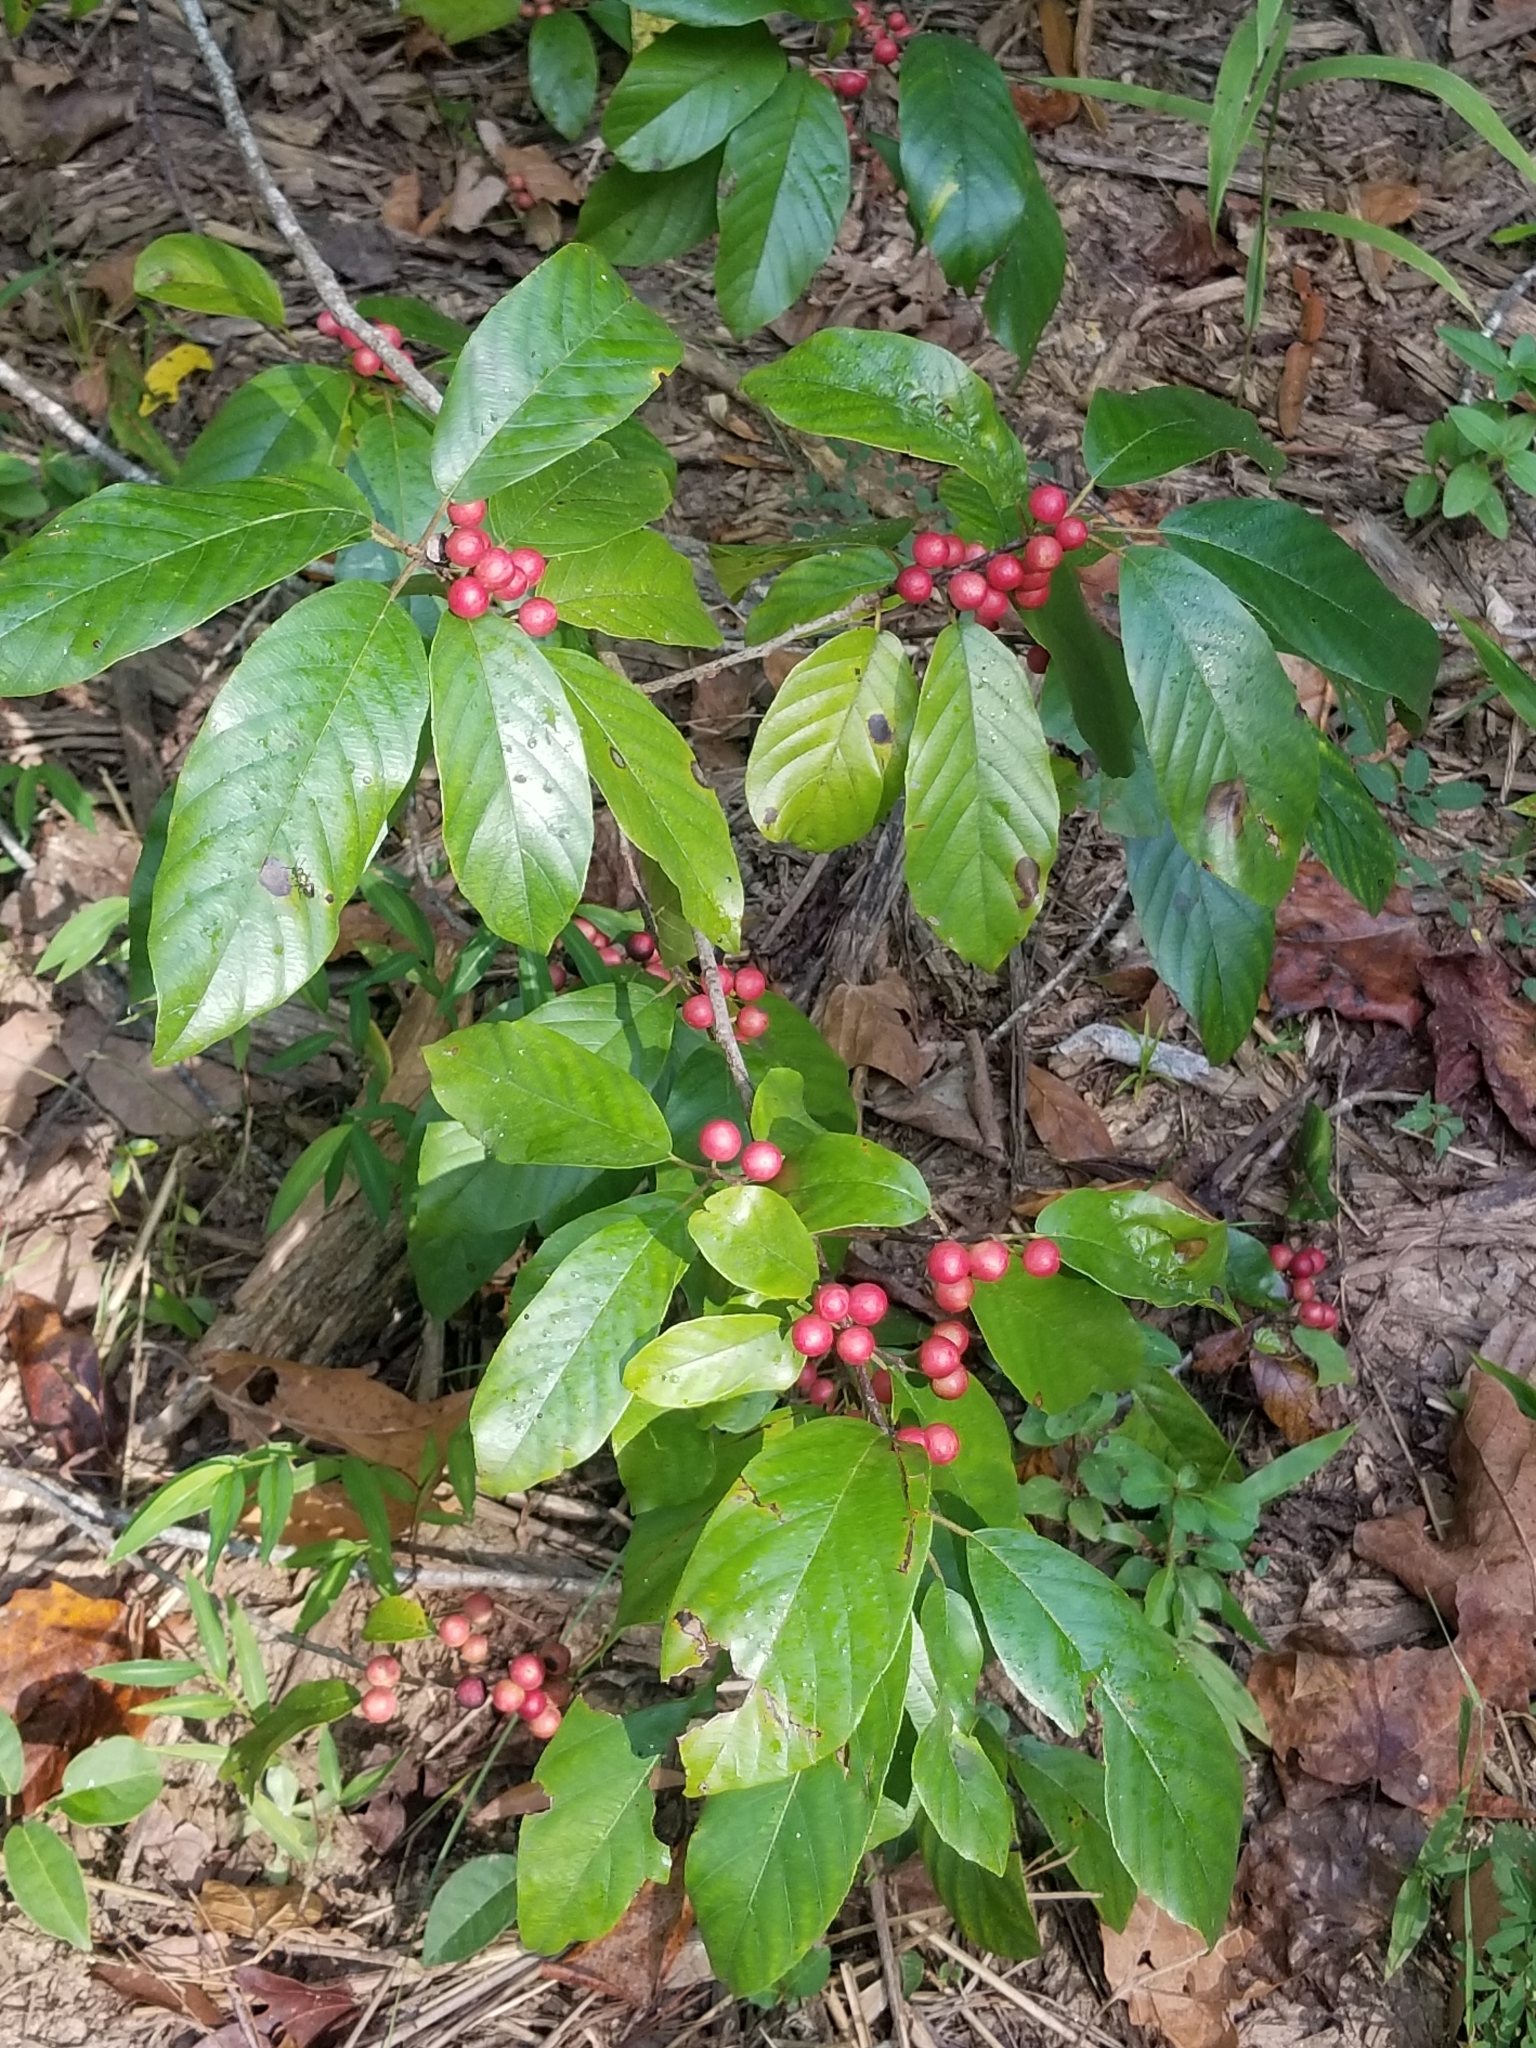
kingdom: Plantae
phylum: Tracheophyta
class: Magnoliopsida
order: Rosales
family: Rhamnaceae
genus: Frangula
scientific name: Frangula caroliniana
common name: Carolina buckthorn
